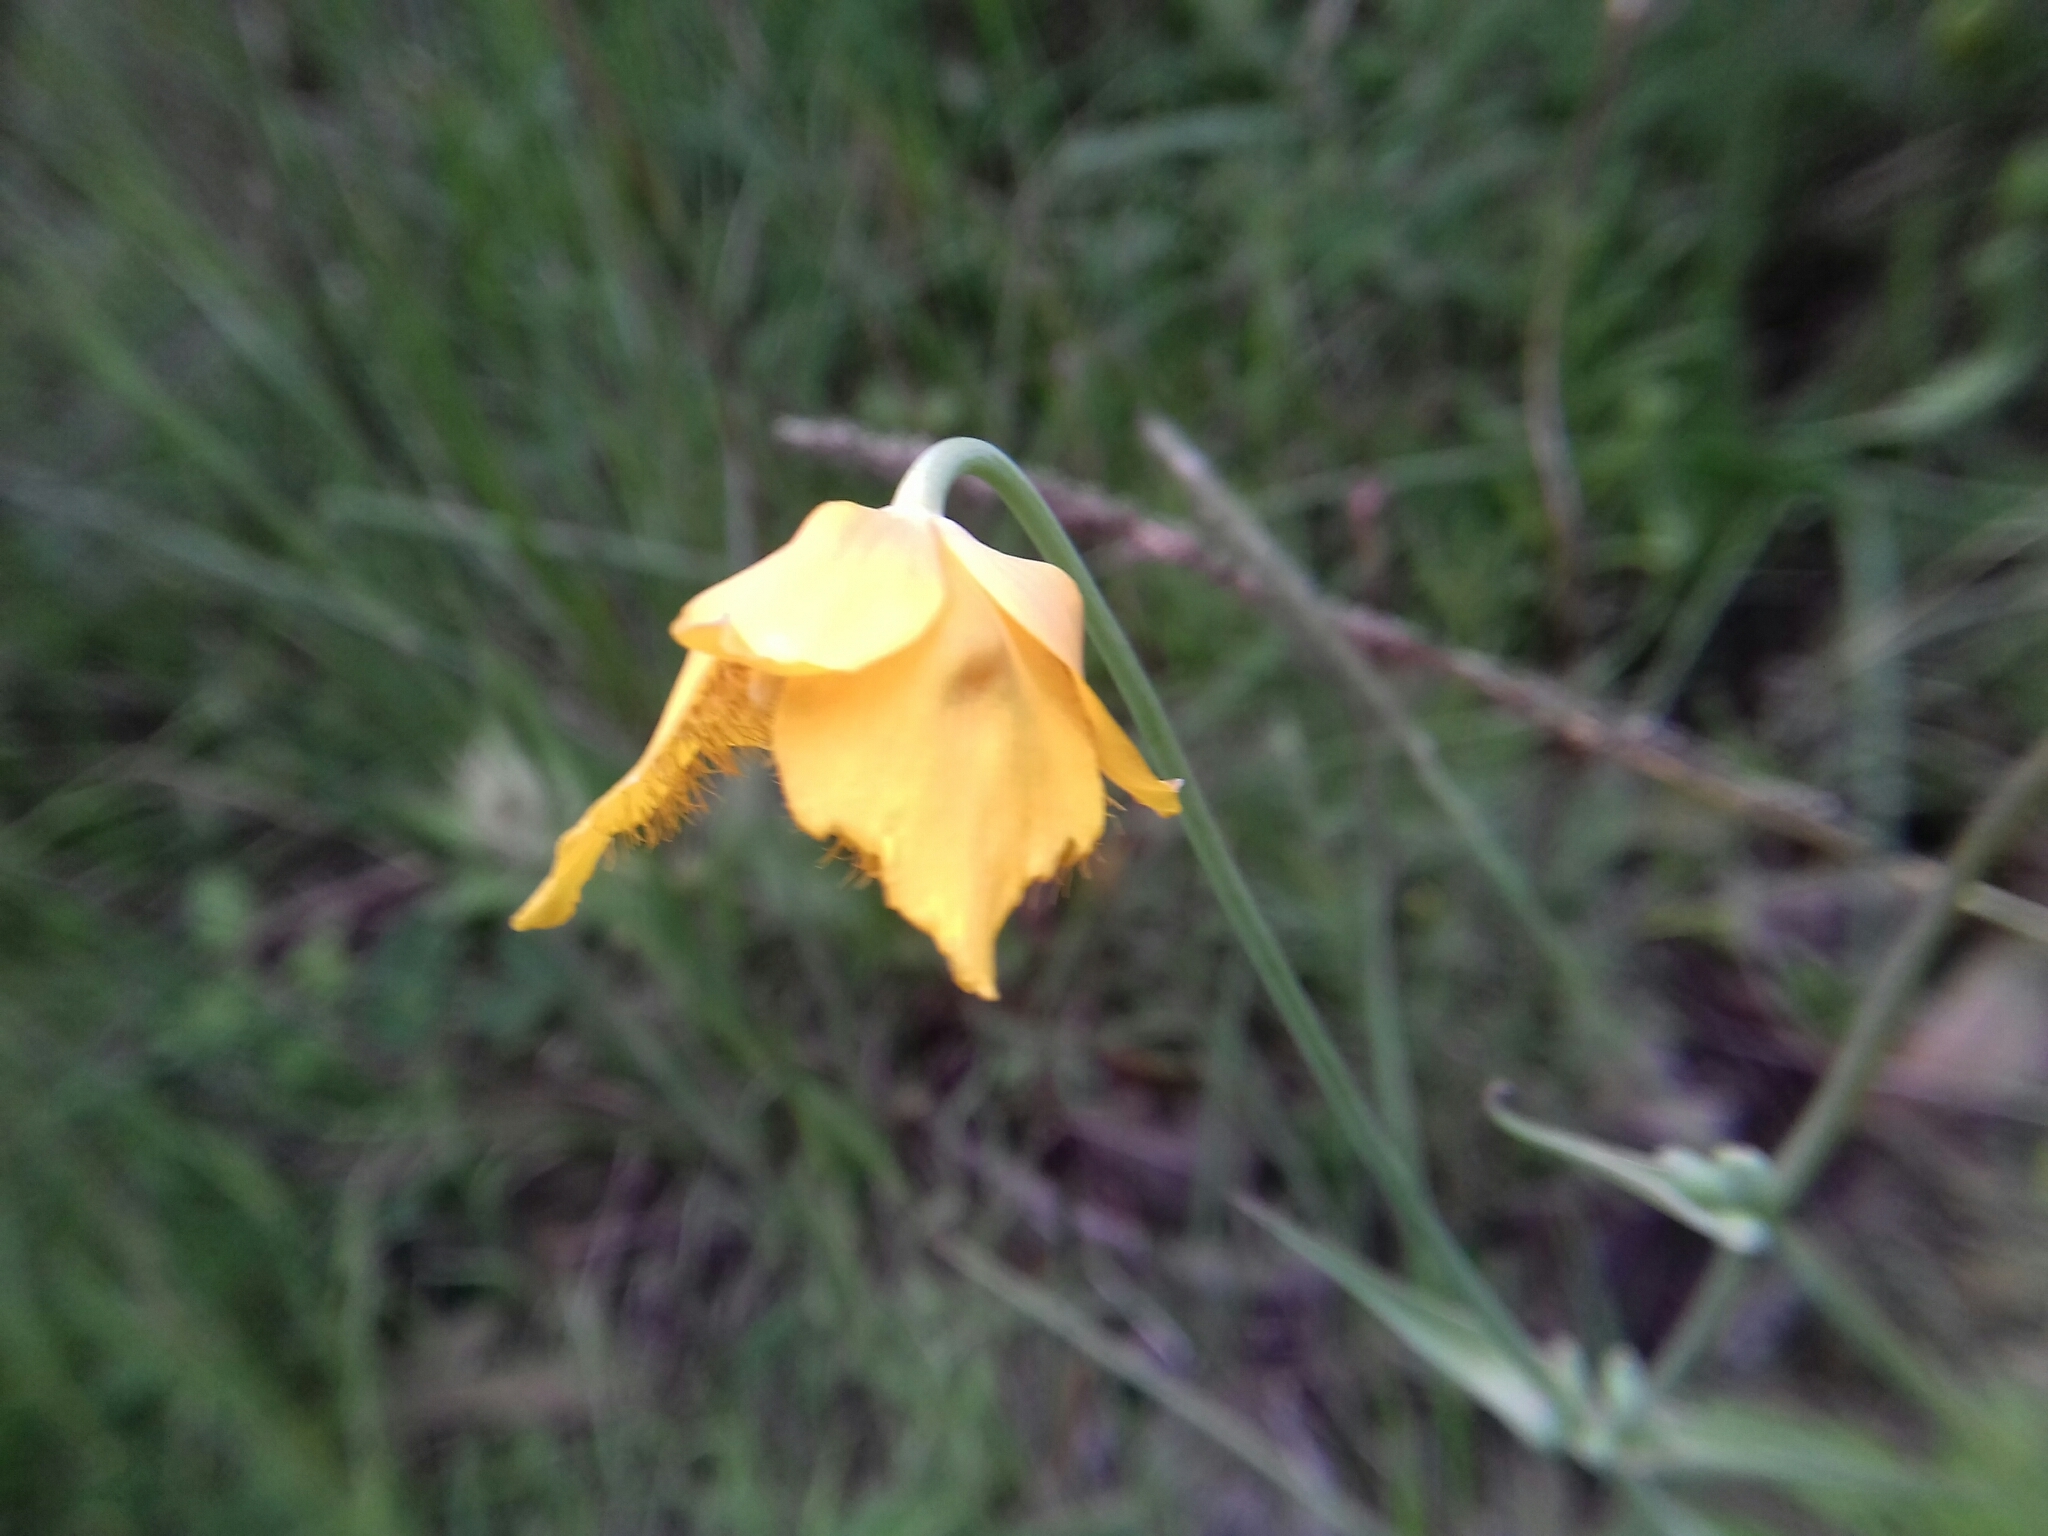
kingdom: Plantae
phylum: Tracheophyta
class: Liliopsida
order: Liliales
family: Liliaceae
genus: Calochortus
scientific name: Calochortus barbatus
